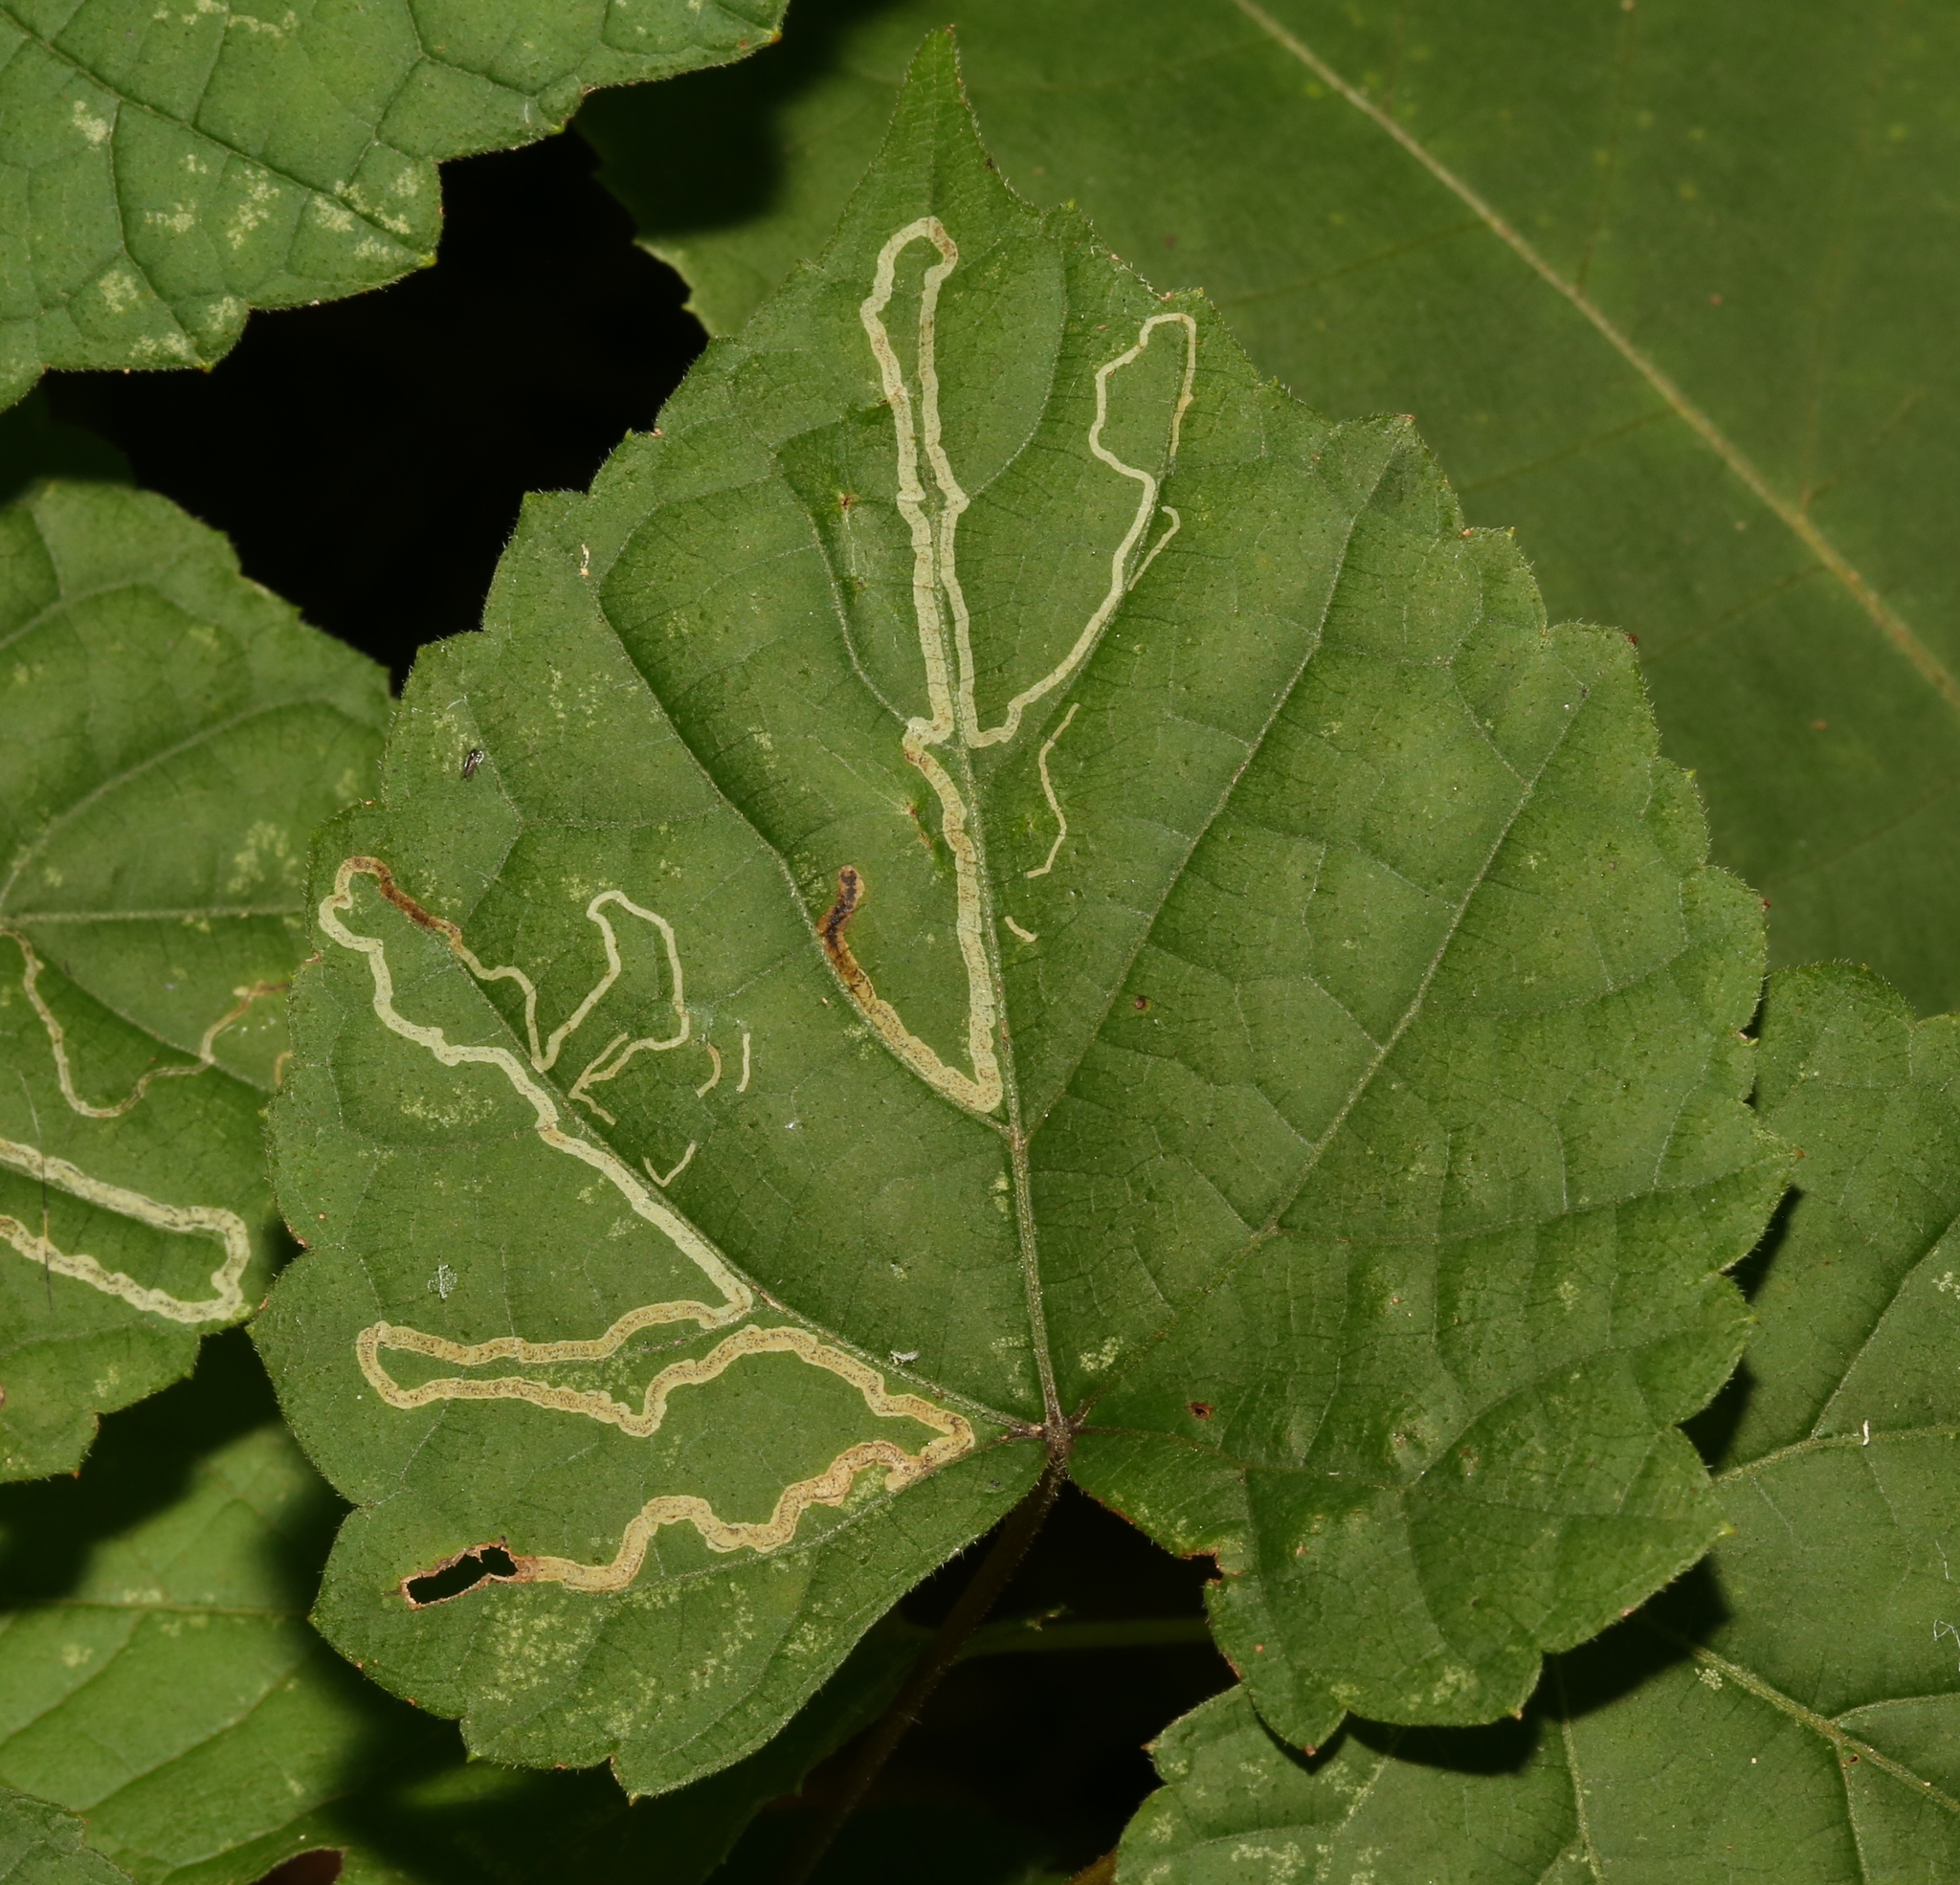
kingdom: Animalia
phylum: Arthropoda
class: Insecta
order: Lepidoptera
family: Gracillariidae
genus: Phyllocnistis
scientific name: Phyllocnistis vitifoliella
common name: Grape leaf-miner moth
